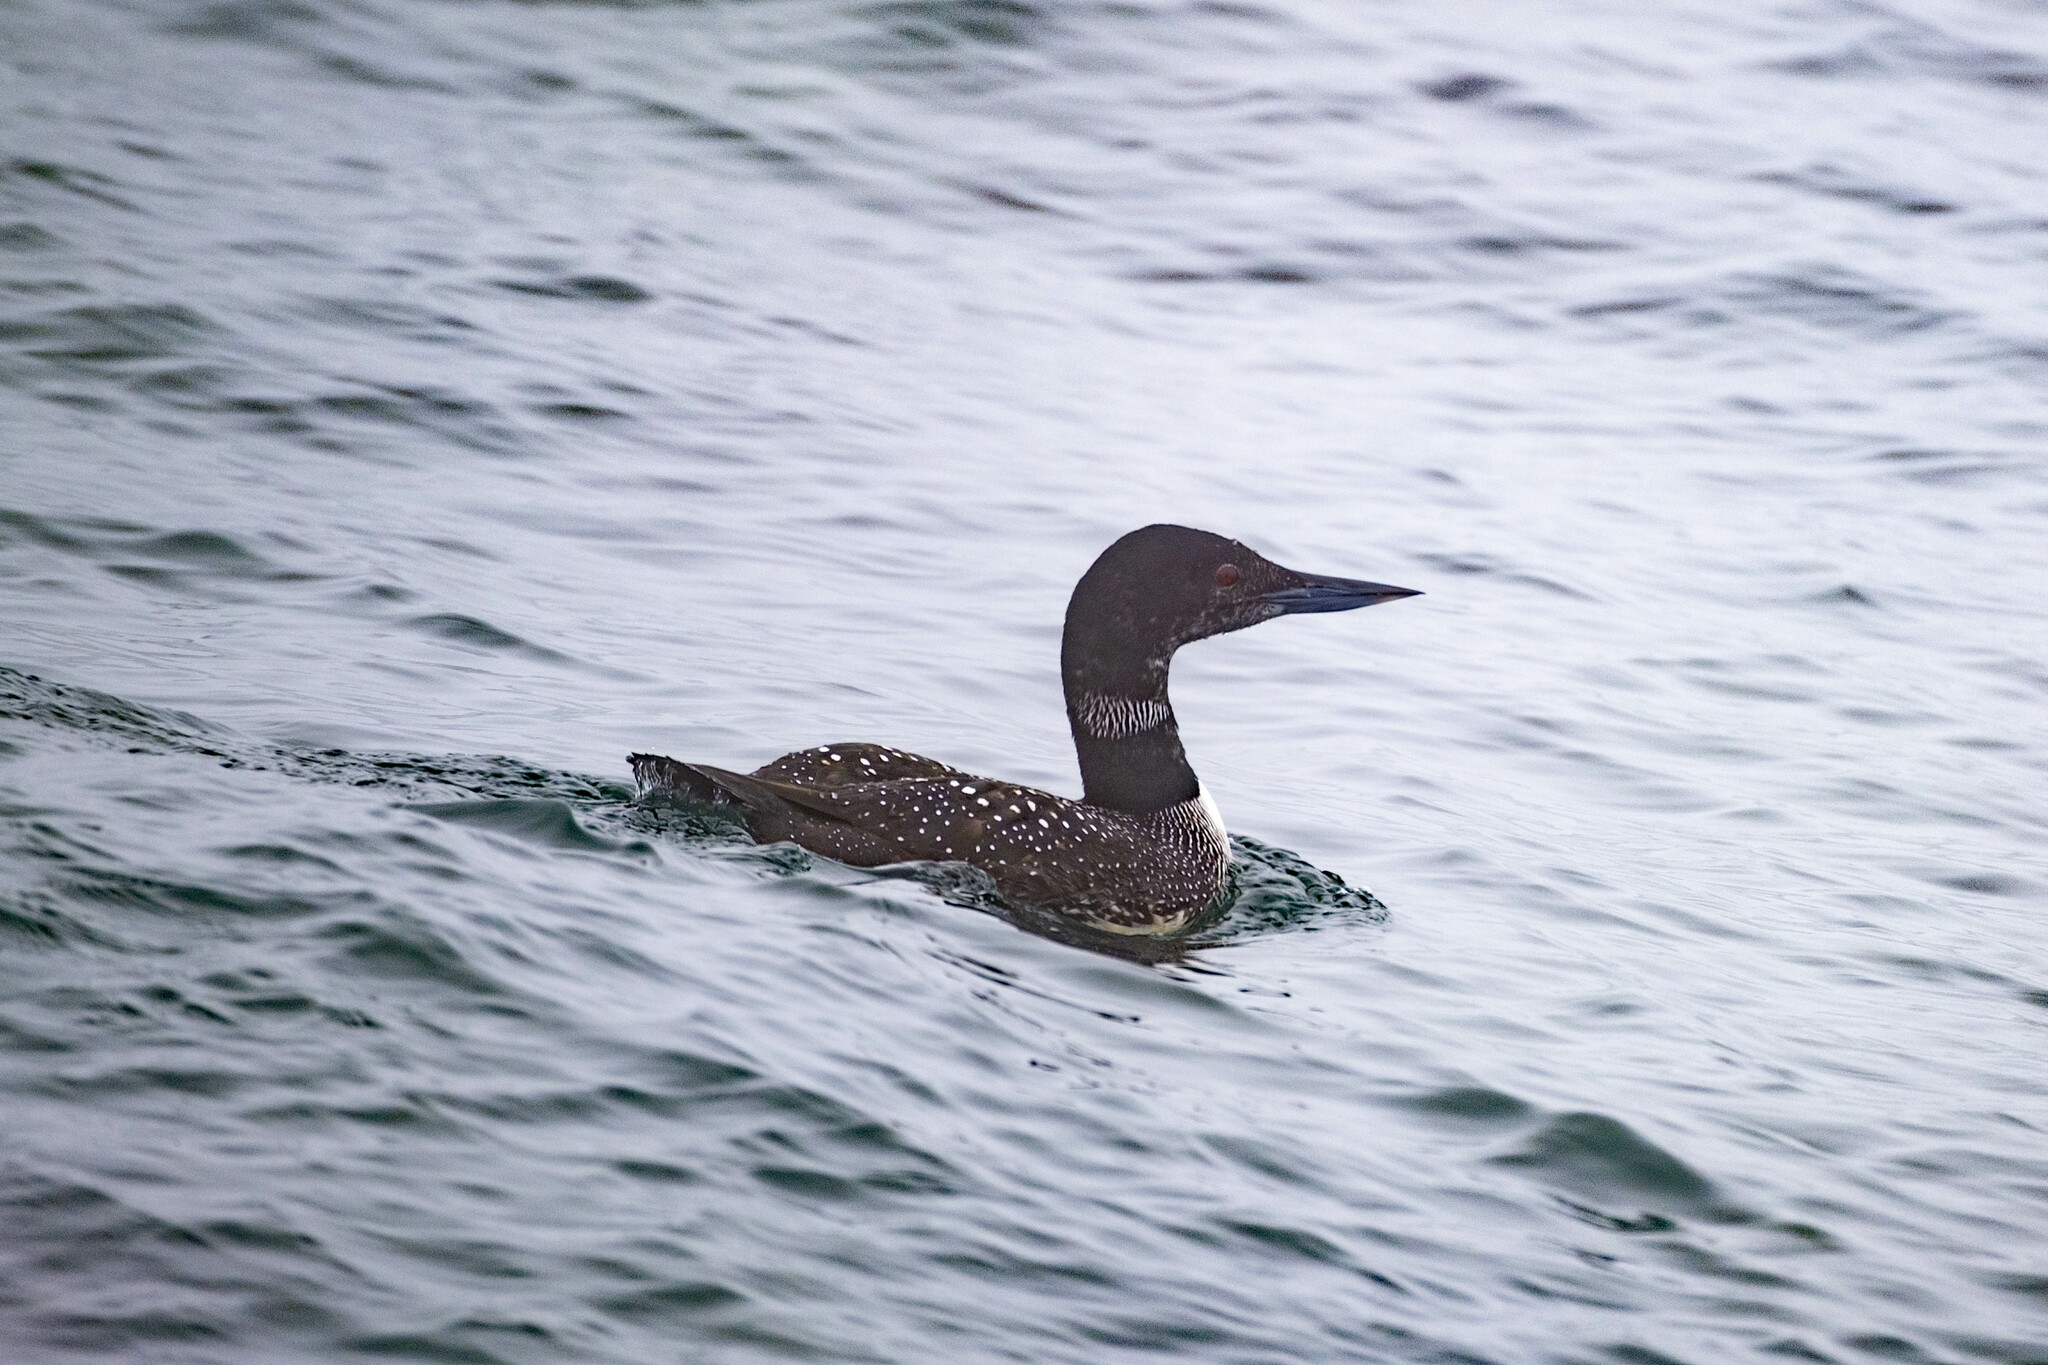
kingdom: Animalia
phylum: Chordata
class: Aves
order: Gaviiformes
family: Gaviidae
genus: Gavia
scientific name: Gavia immer
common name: Common loon
